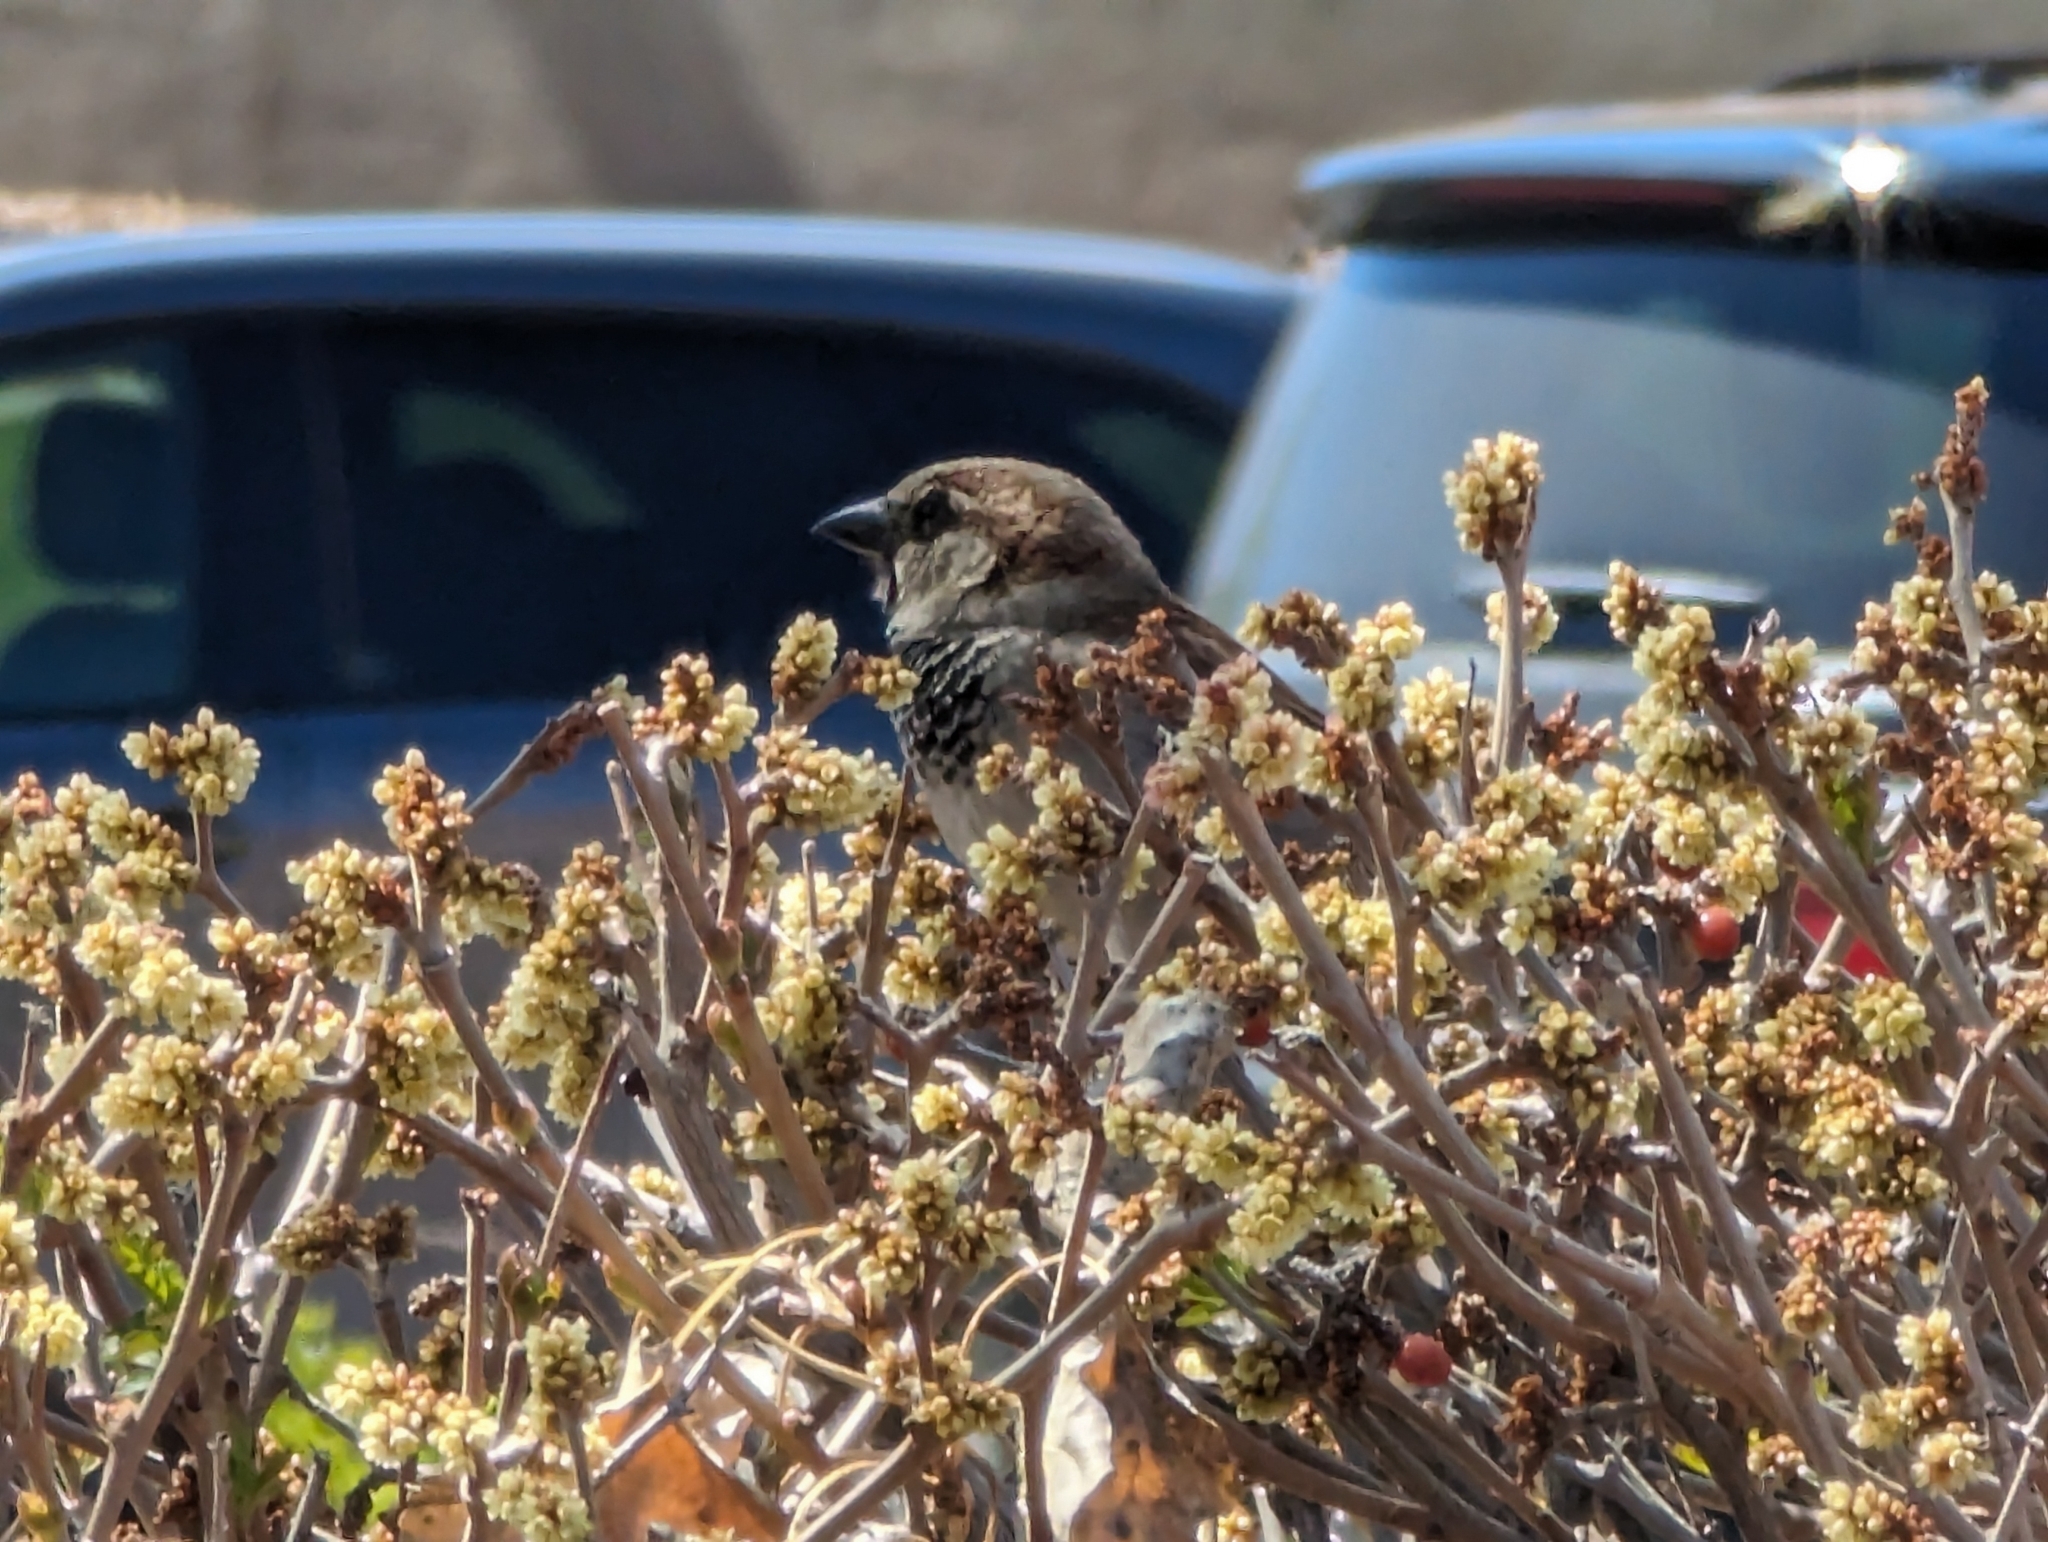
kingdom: Animalia
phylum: Chordata
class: Aves
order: Passeriformes
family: Passeridae
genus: Passer
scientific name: Passer domesticus
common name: House sparrow
